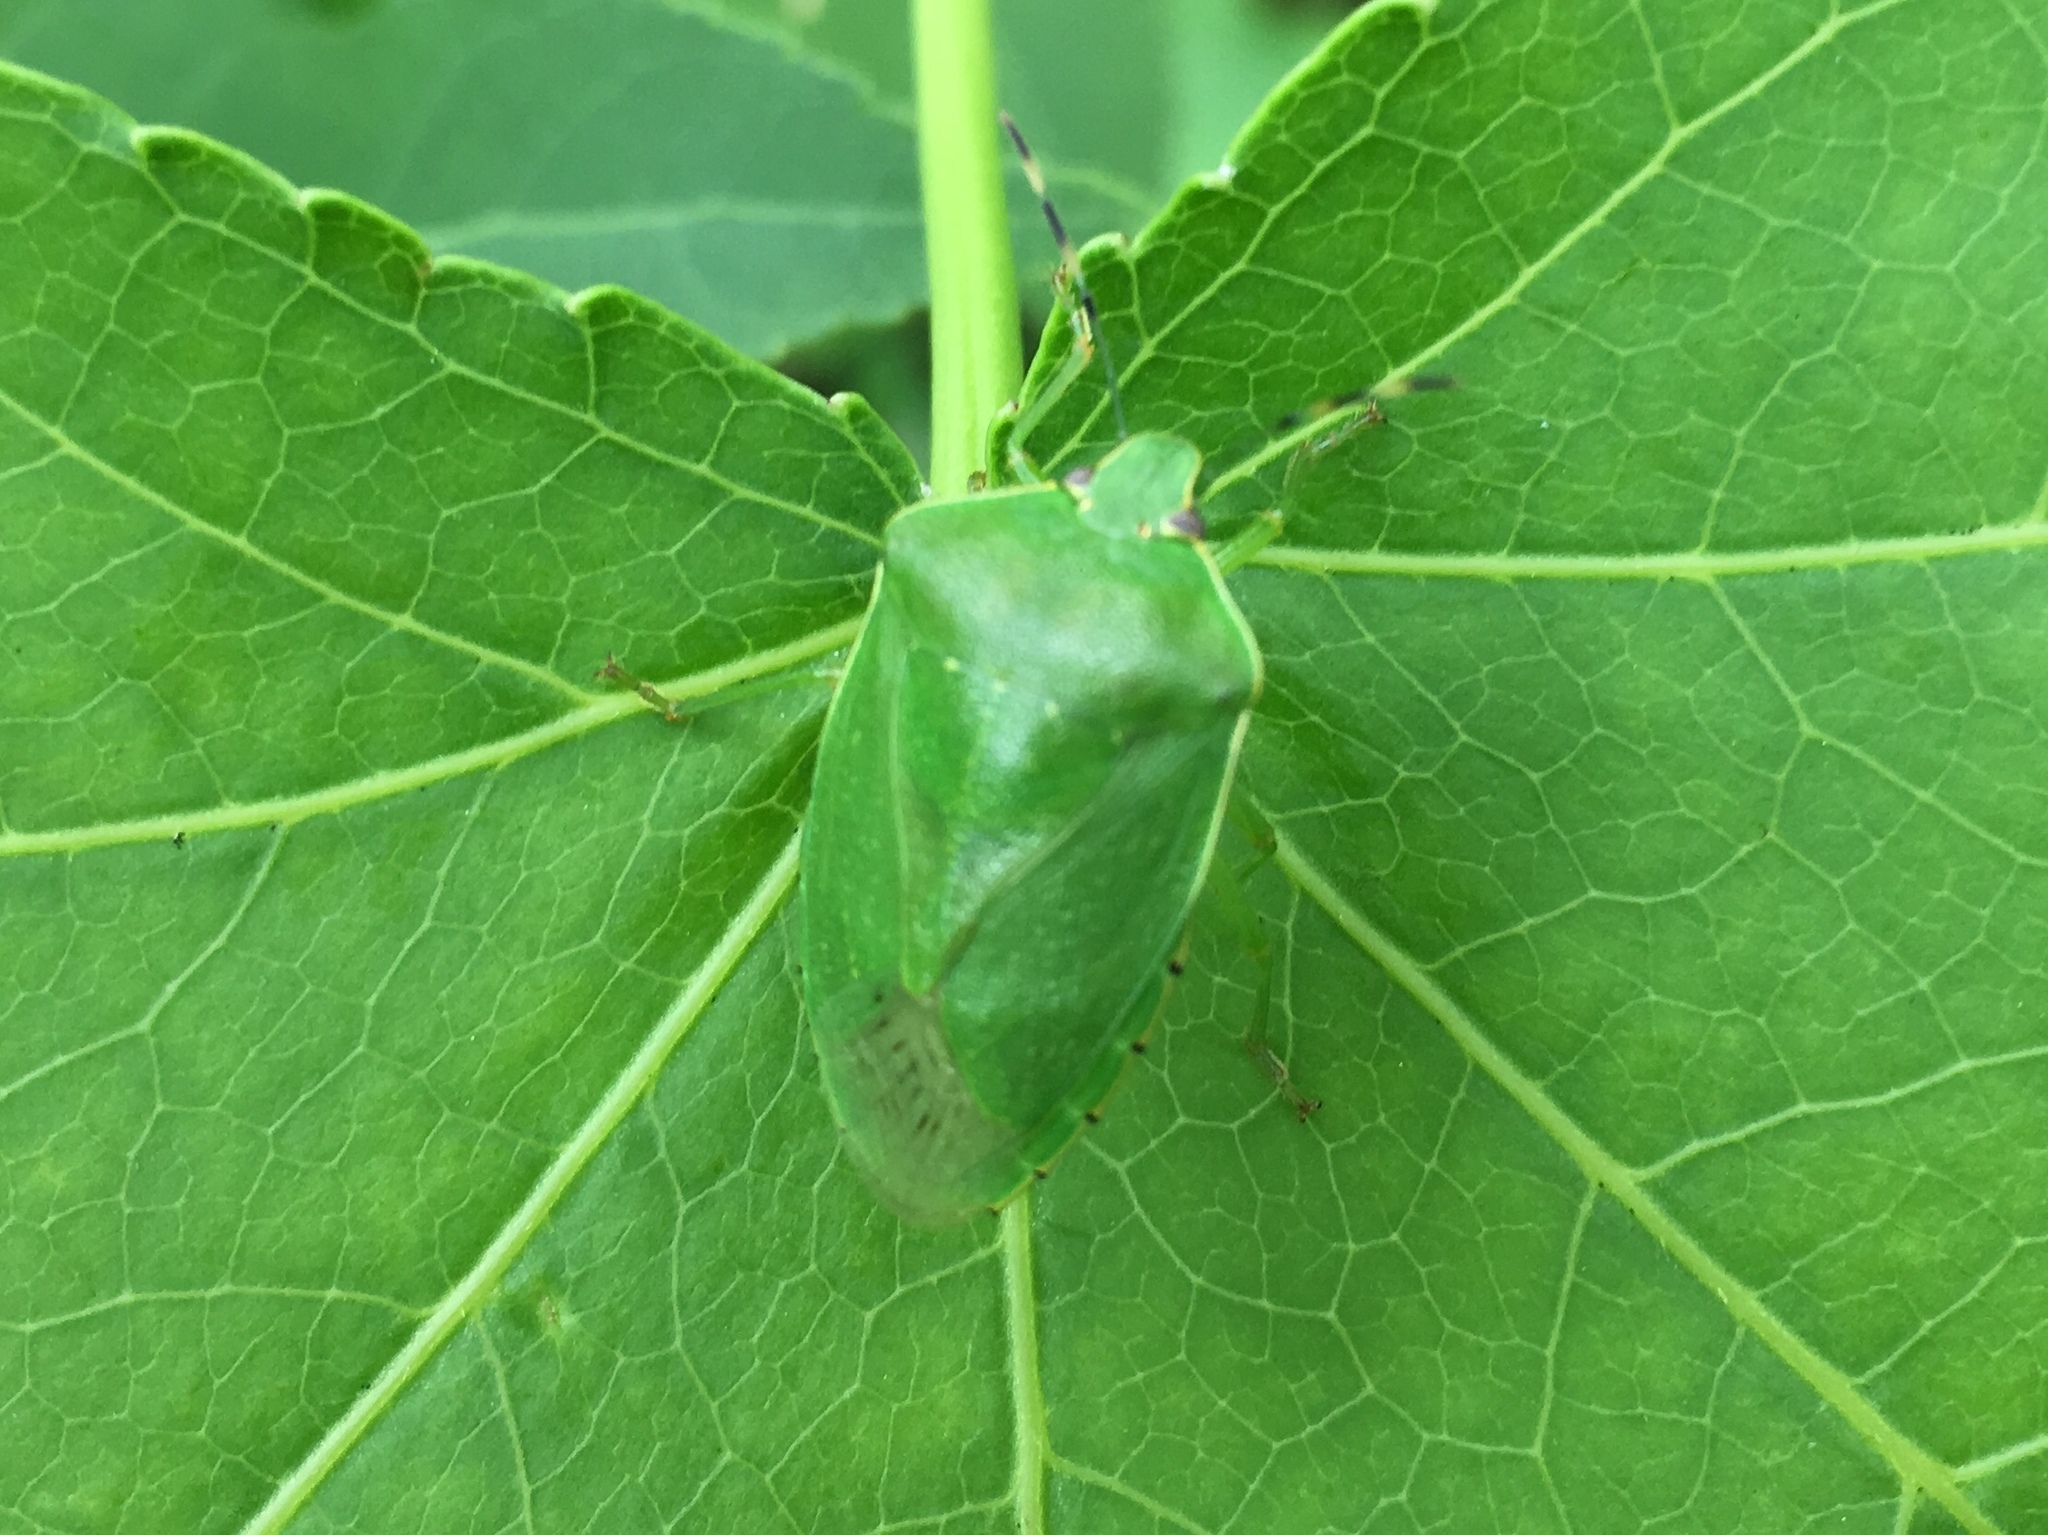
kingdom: Animalia
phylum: Arthropoda
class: Insecta
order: Hemiptera
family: Pentatomidae
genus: Chinavia
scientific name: Chinavia hilaris
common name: Green stink bug
